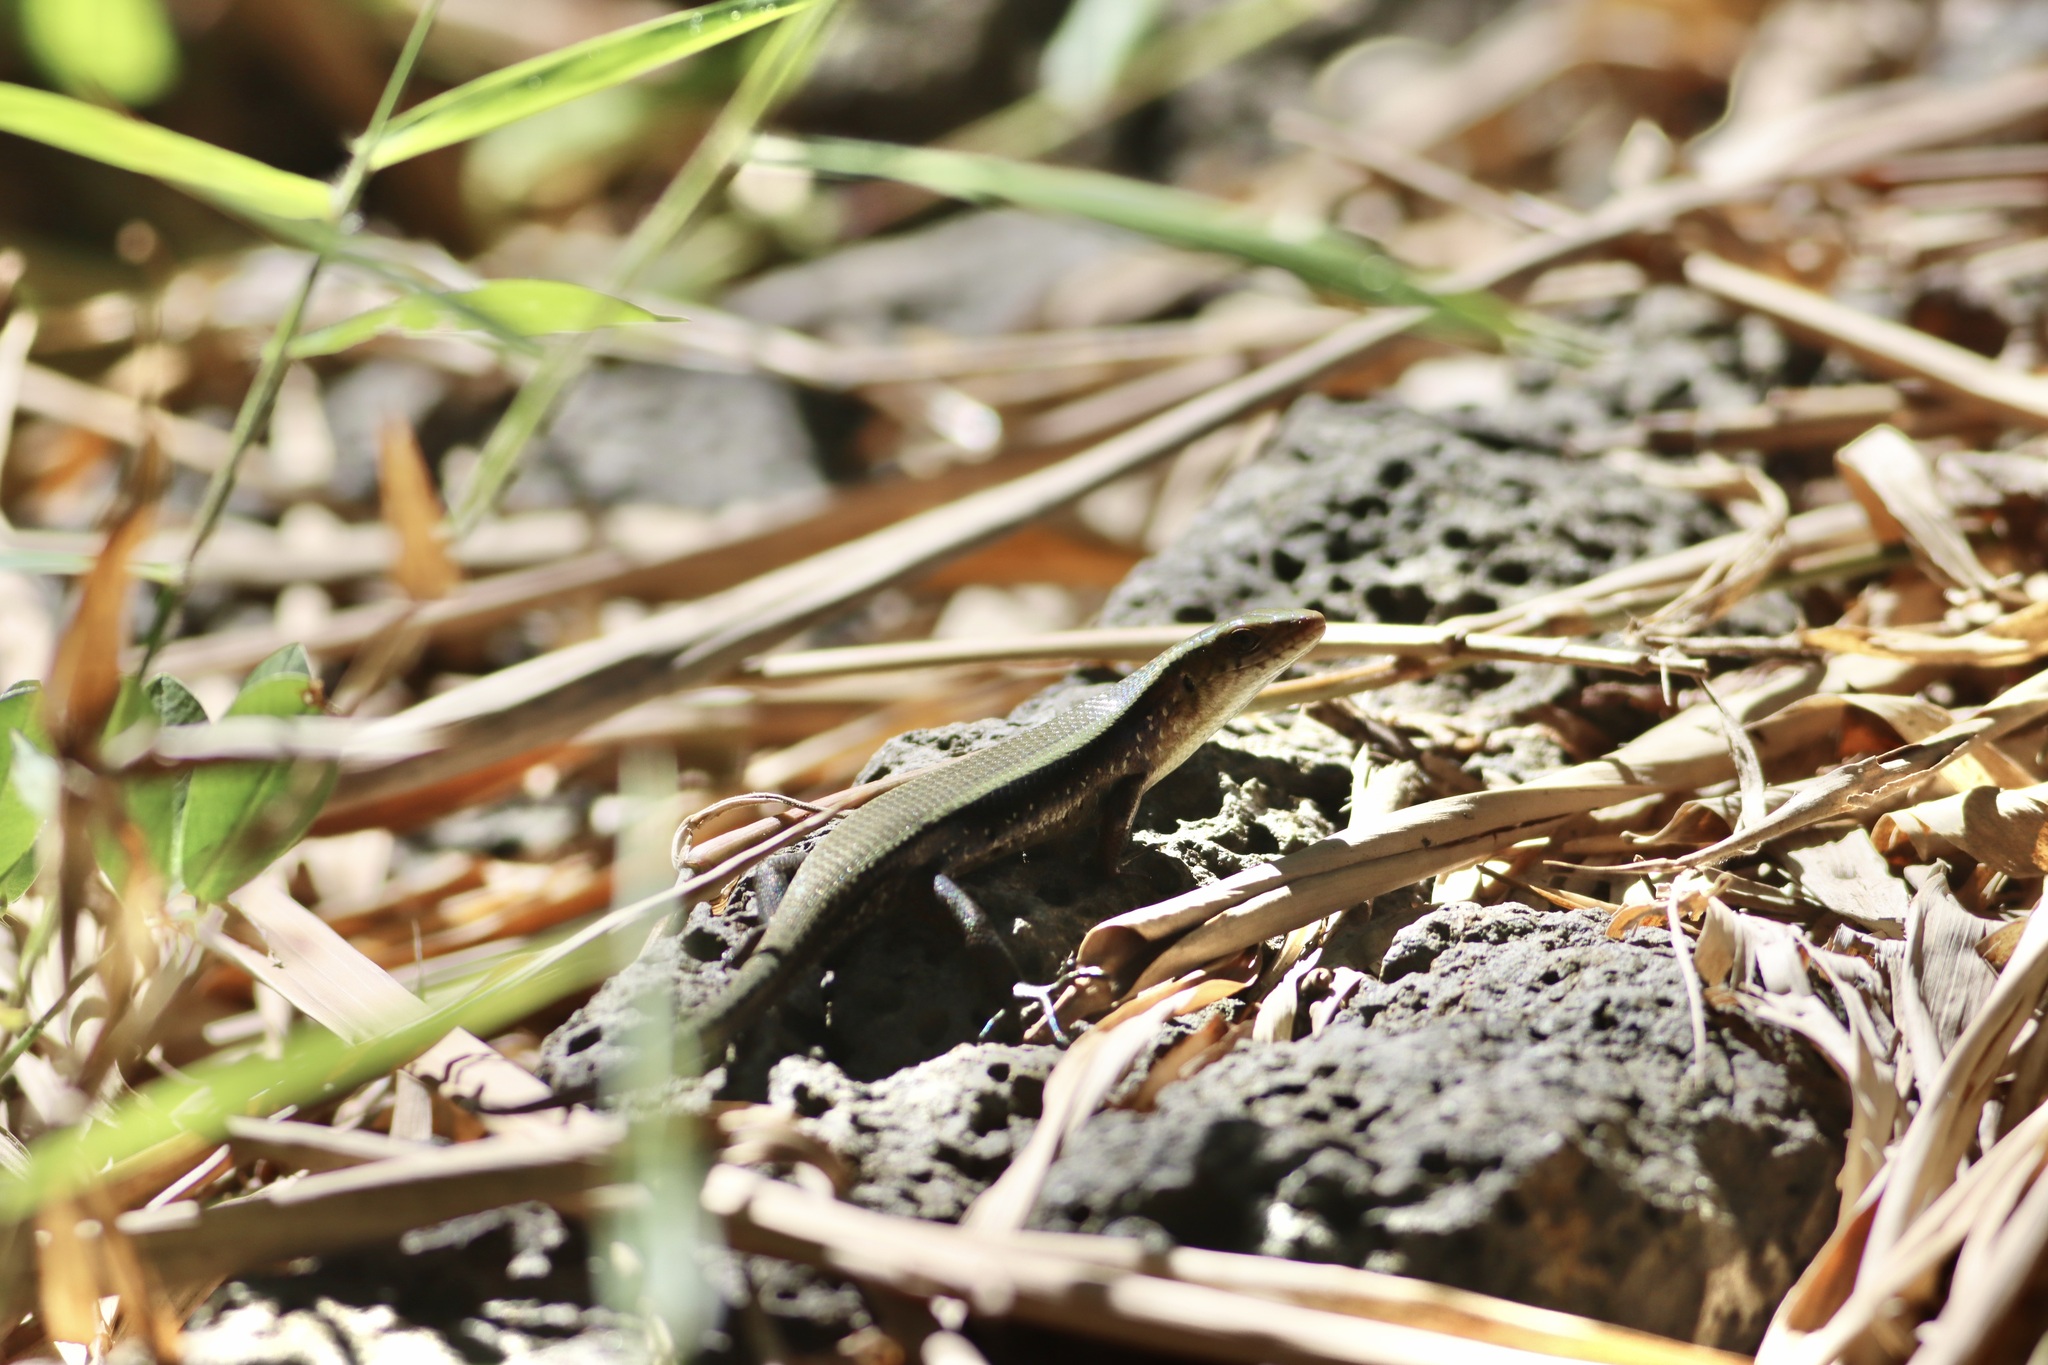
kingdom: Animalia
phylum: Chordata
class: Squamata
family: Scincidae
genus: Eutropis
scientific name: Eutropis multifasciata
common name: Common mabuya
